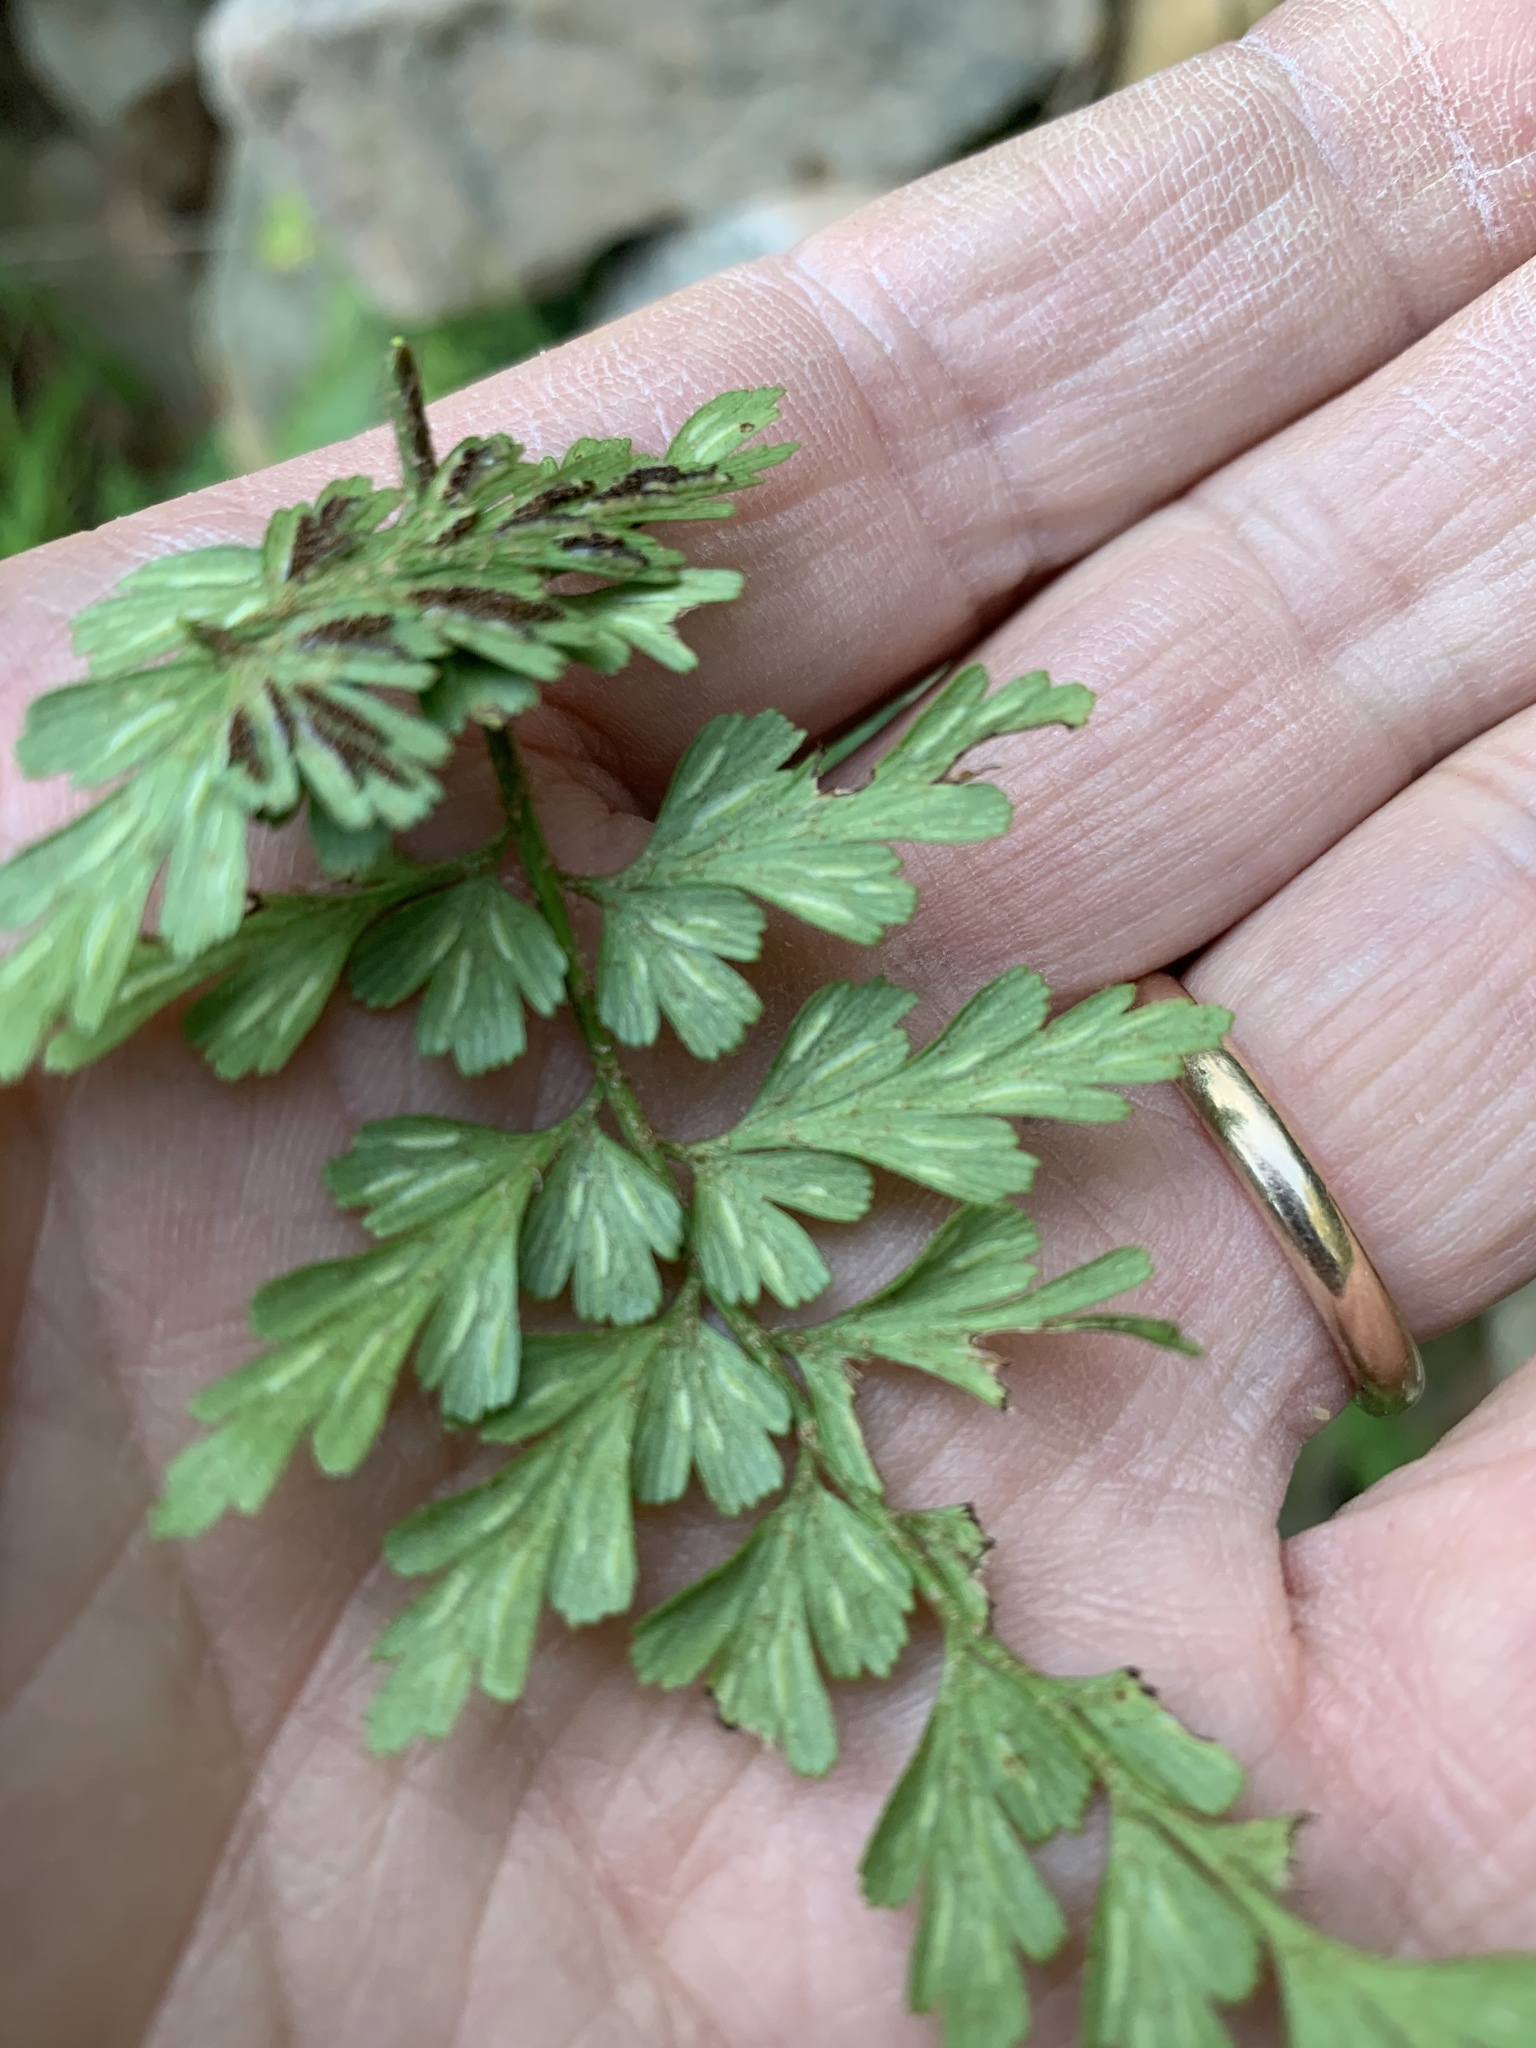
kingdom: Plantae
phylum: Tracheophyta
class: Polypodiopsida
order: Polypodiales
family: Aspleniaceae
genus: Asplenium
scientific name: Asplenium aethiopicum
